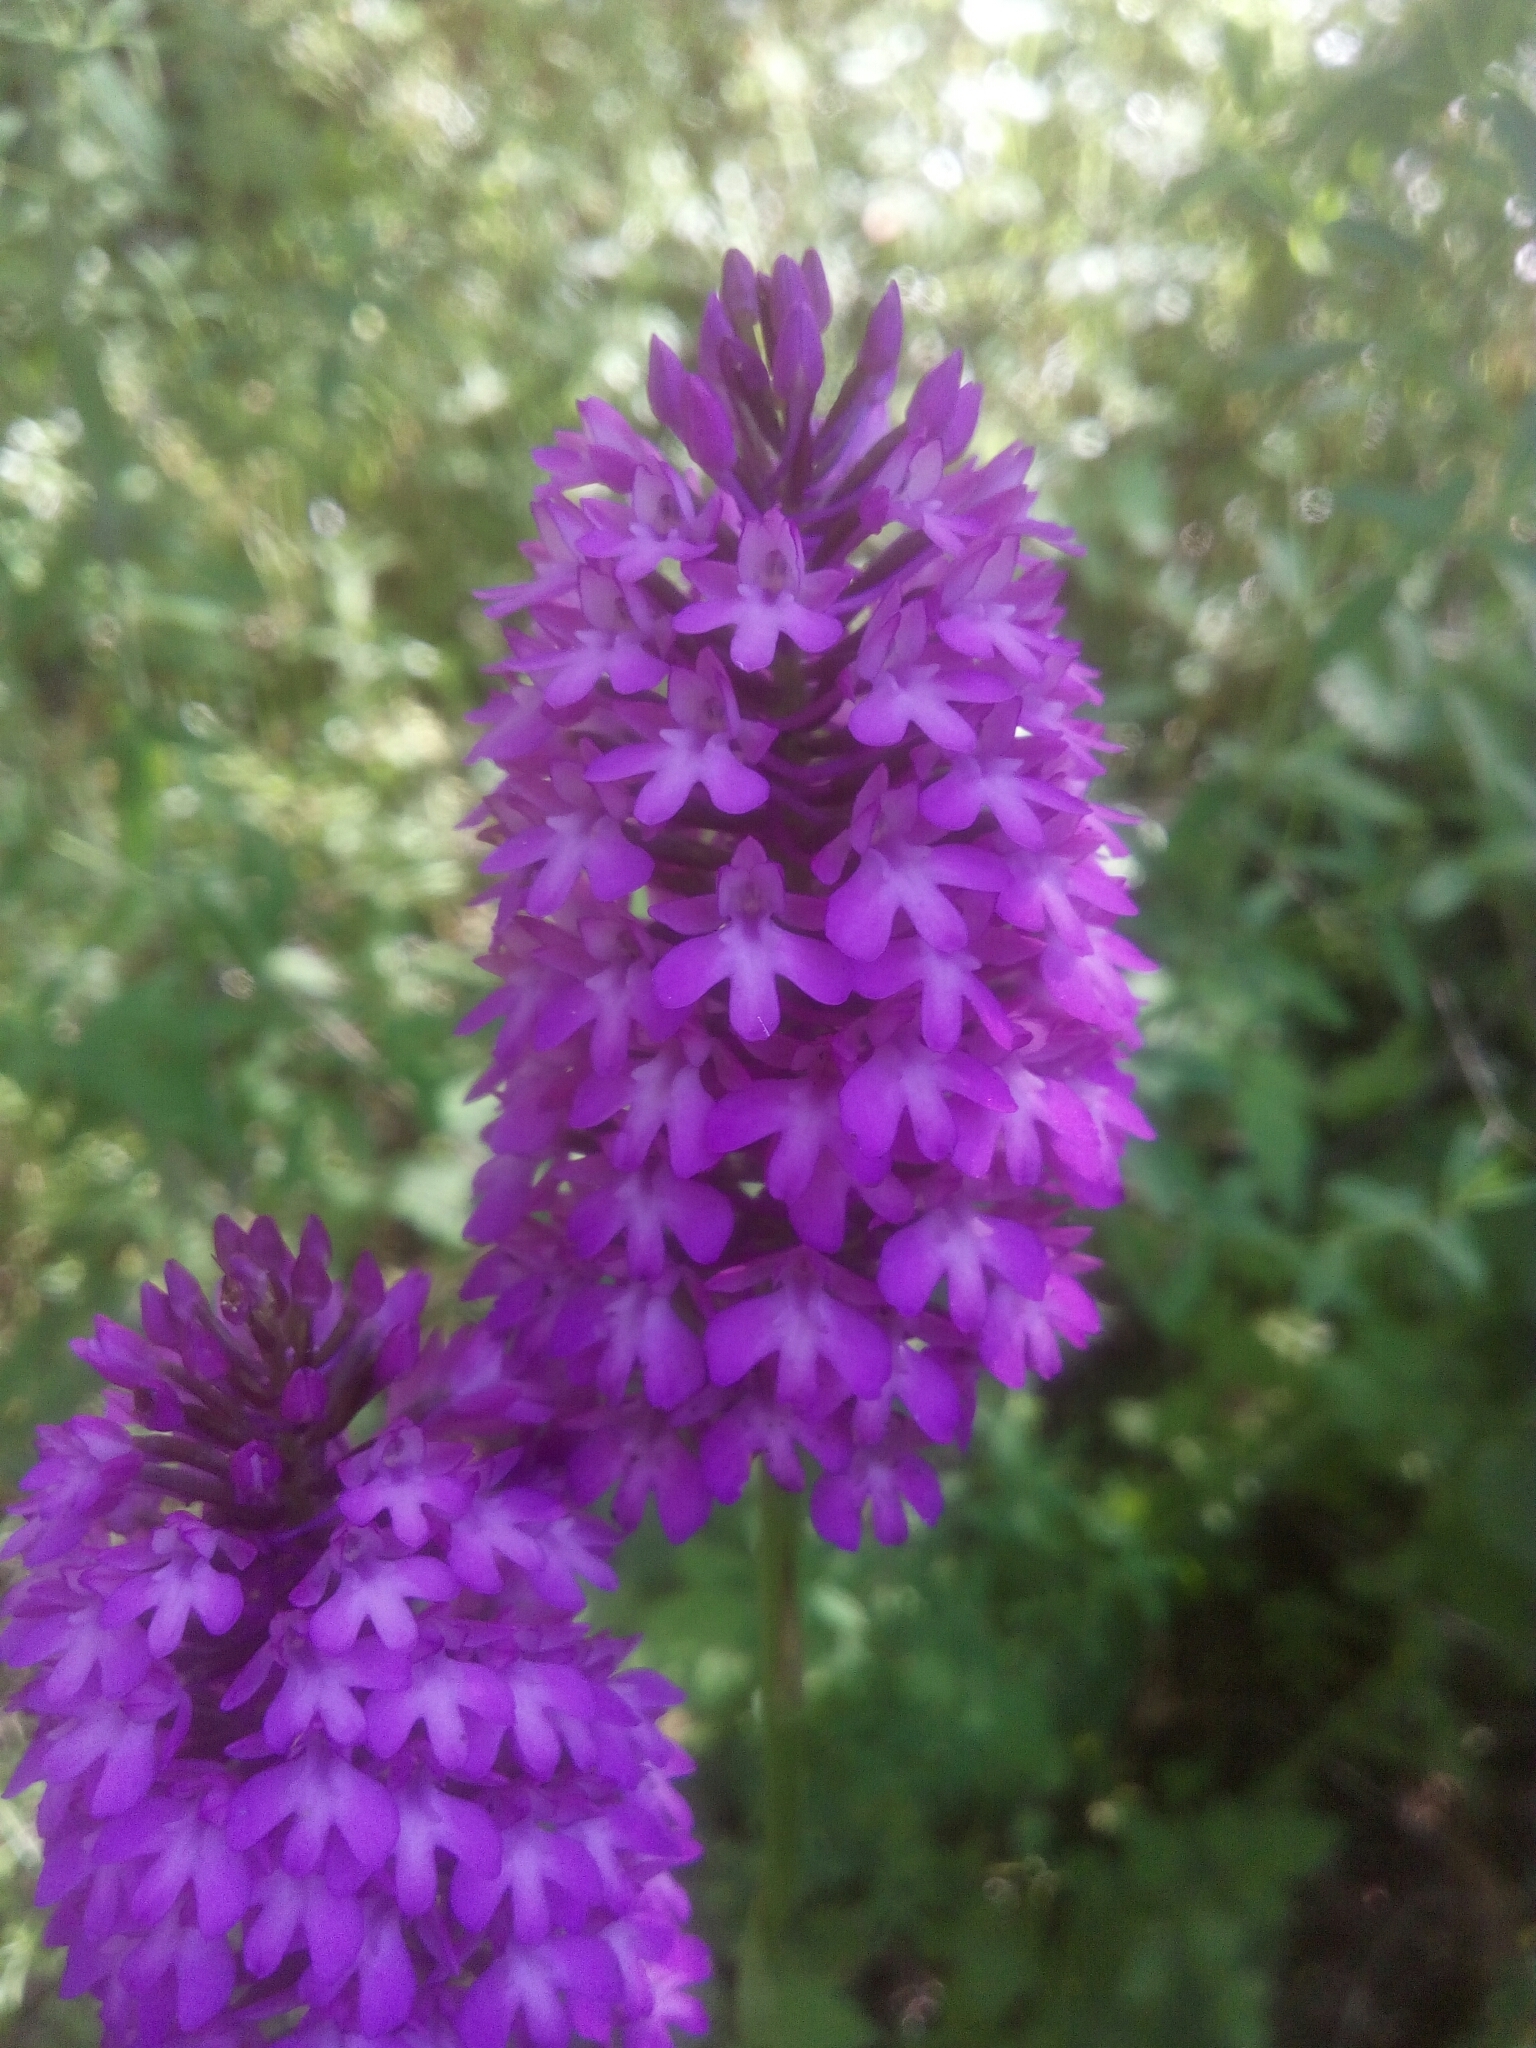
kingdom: Plantae
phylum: Tracheophyta
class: Liliopsida
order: Asparagales
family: Orchidaceae
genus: Anacamptis
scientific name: Anacamptis pyramidalis
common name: Pyramidal orchid
